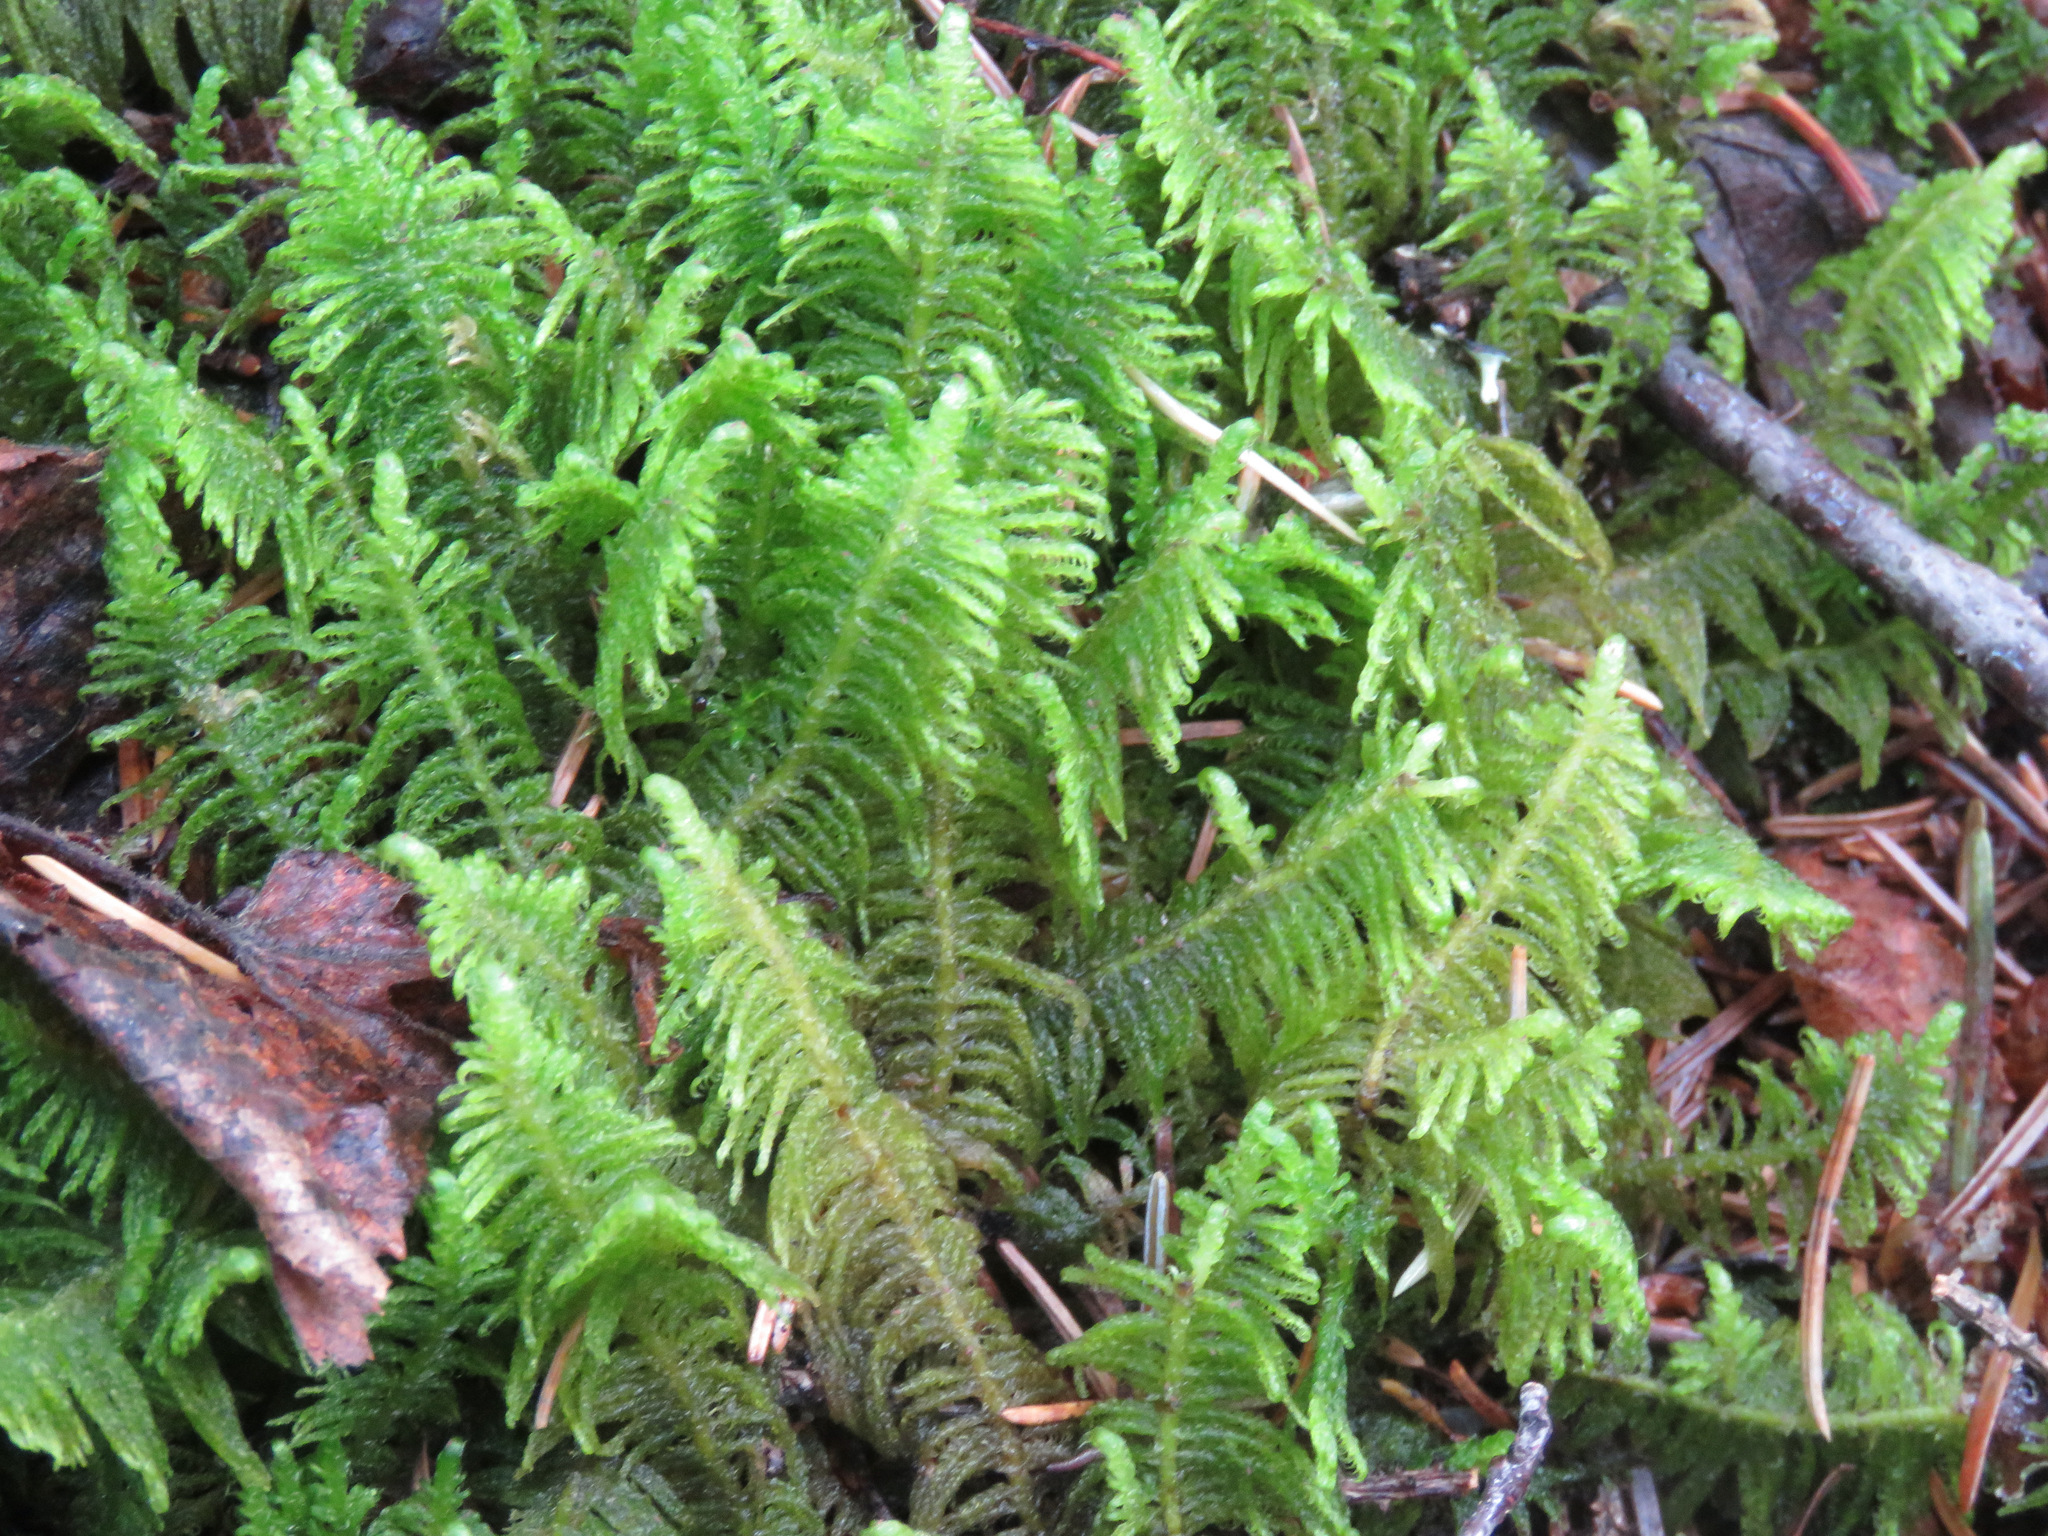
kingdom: Plantae
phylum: Bryophyta
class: Bryopsida
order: Hypnales
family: Pylaisiaceae
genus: Ptilium
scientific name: Ptilium crista-castrensis
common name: Knight's plume moss
